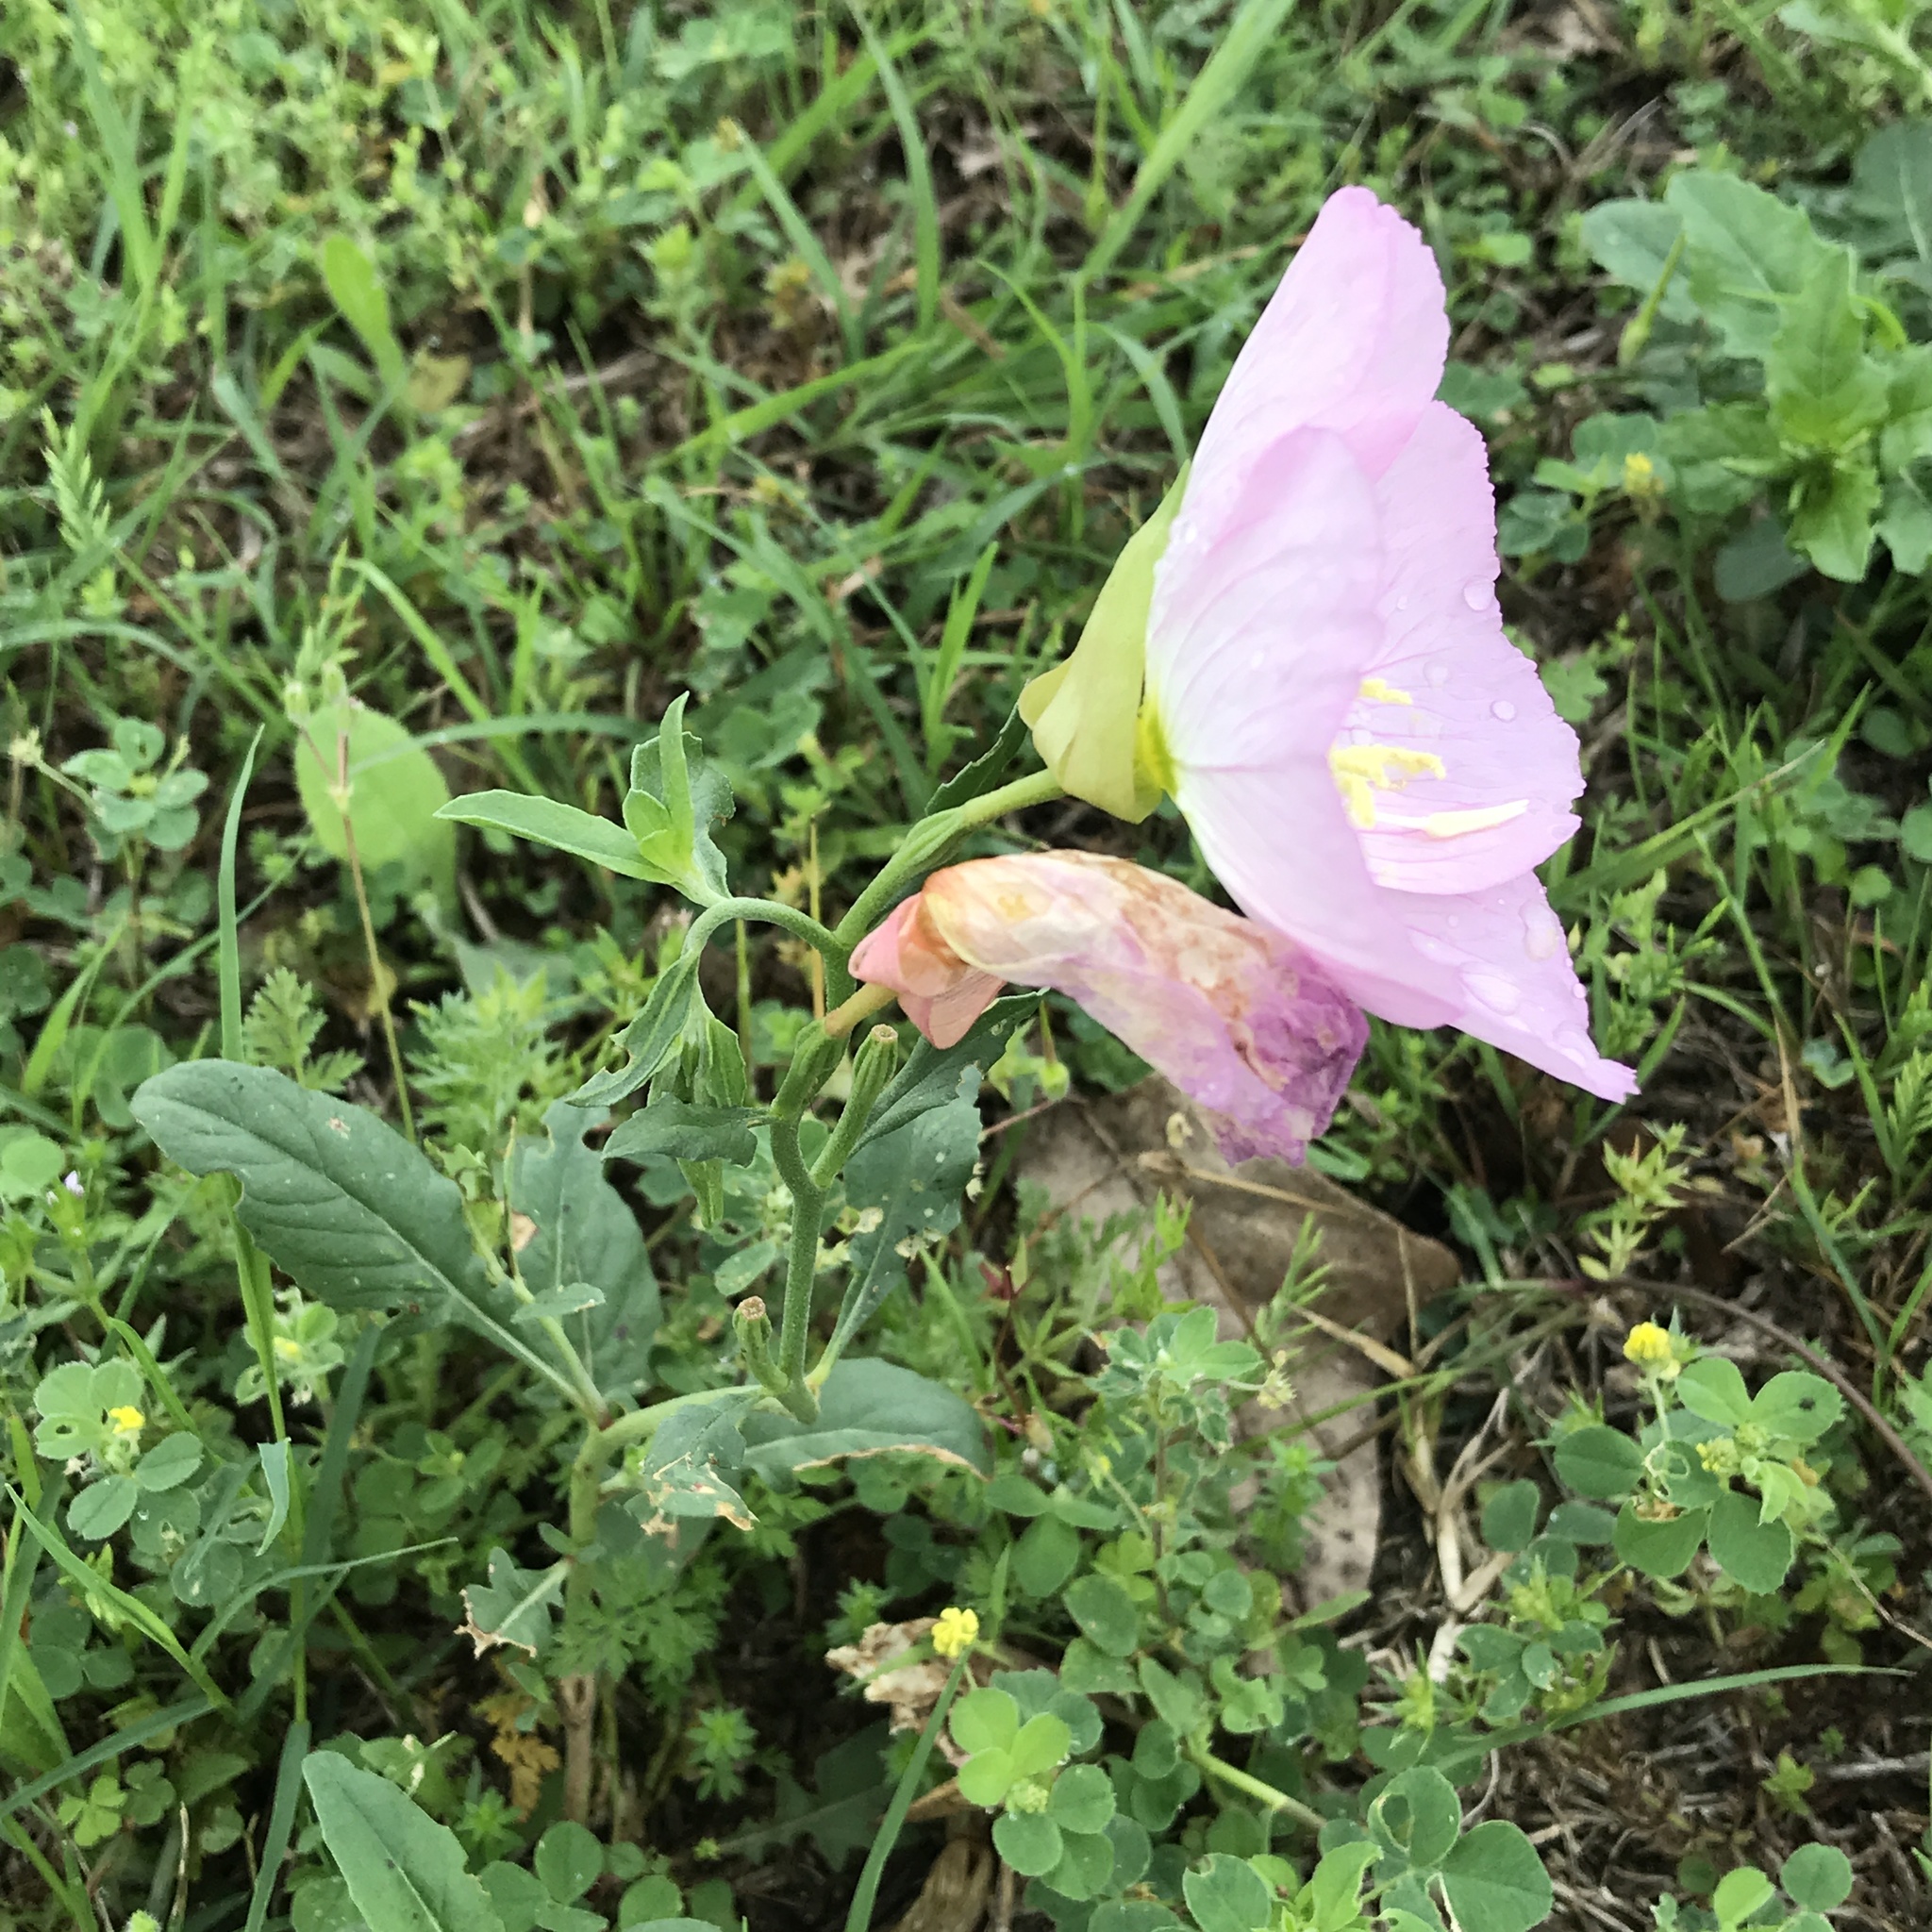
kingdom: Plantae
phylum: Tracheophyta
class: Magnoliopsida
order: Myrtales
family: Onagraceae
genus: Oenothera
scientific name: Oenothera speciosa
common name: White evening-primrose
